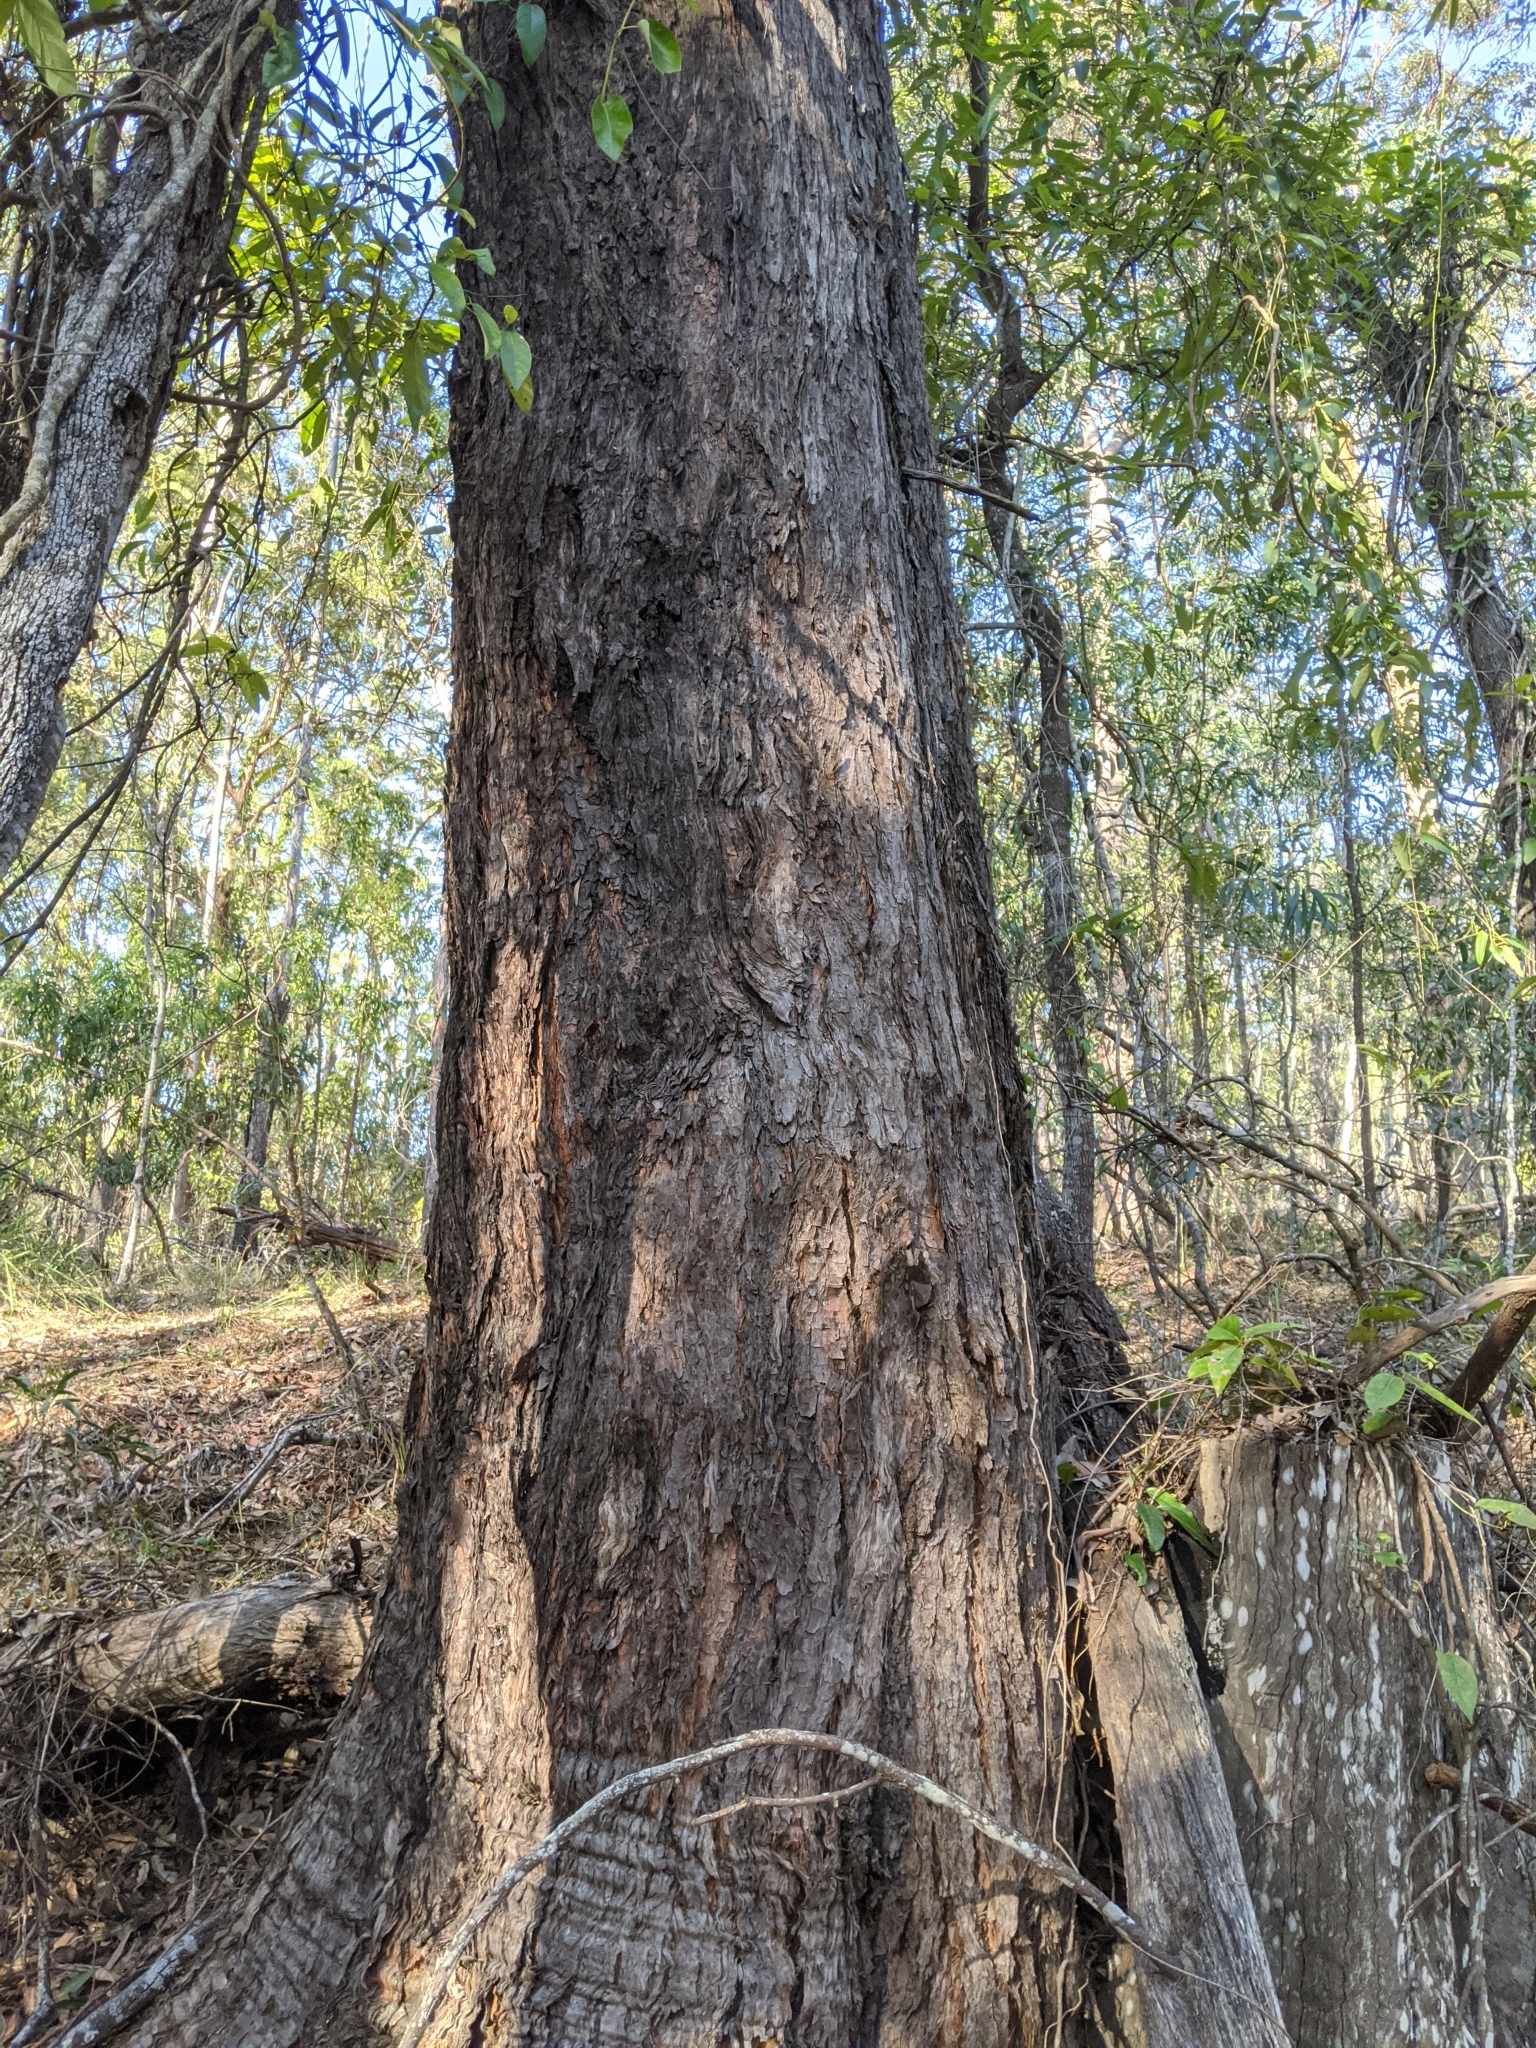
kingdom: Plantae
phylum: Tracheophyta
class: Magnoliopsida
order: Myrtales
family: Myrtaceae
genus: Eucalyptus
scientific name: Eucalyptus microcorys
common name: Tallowwood
